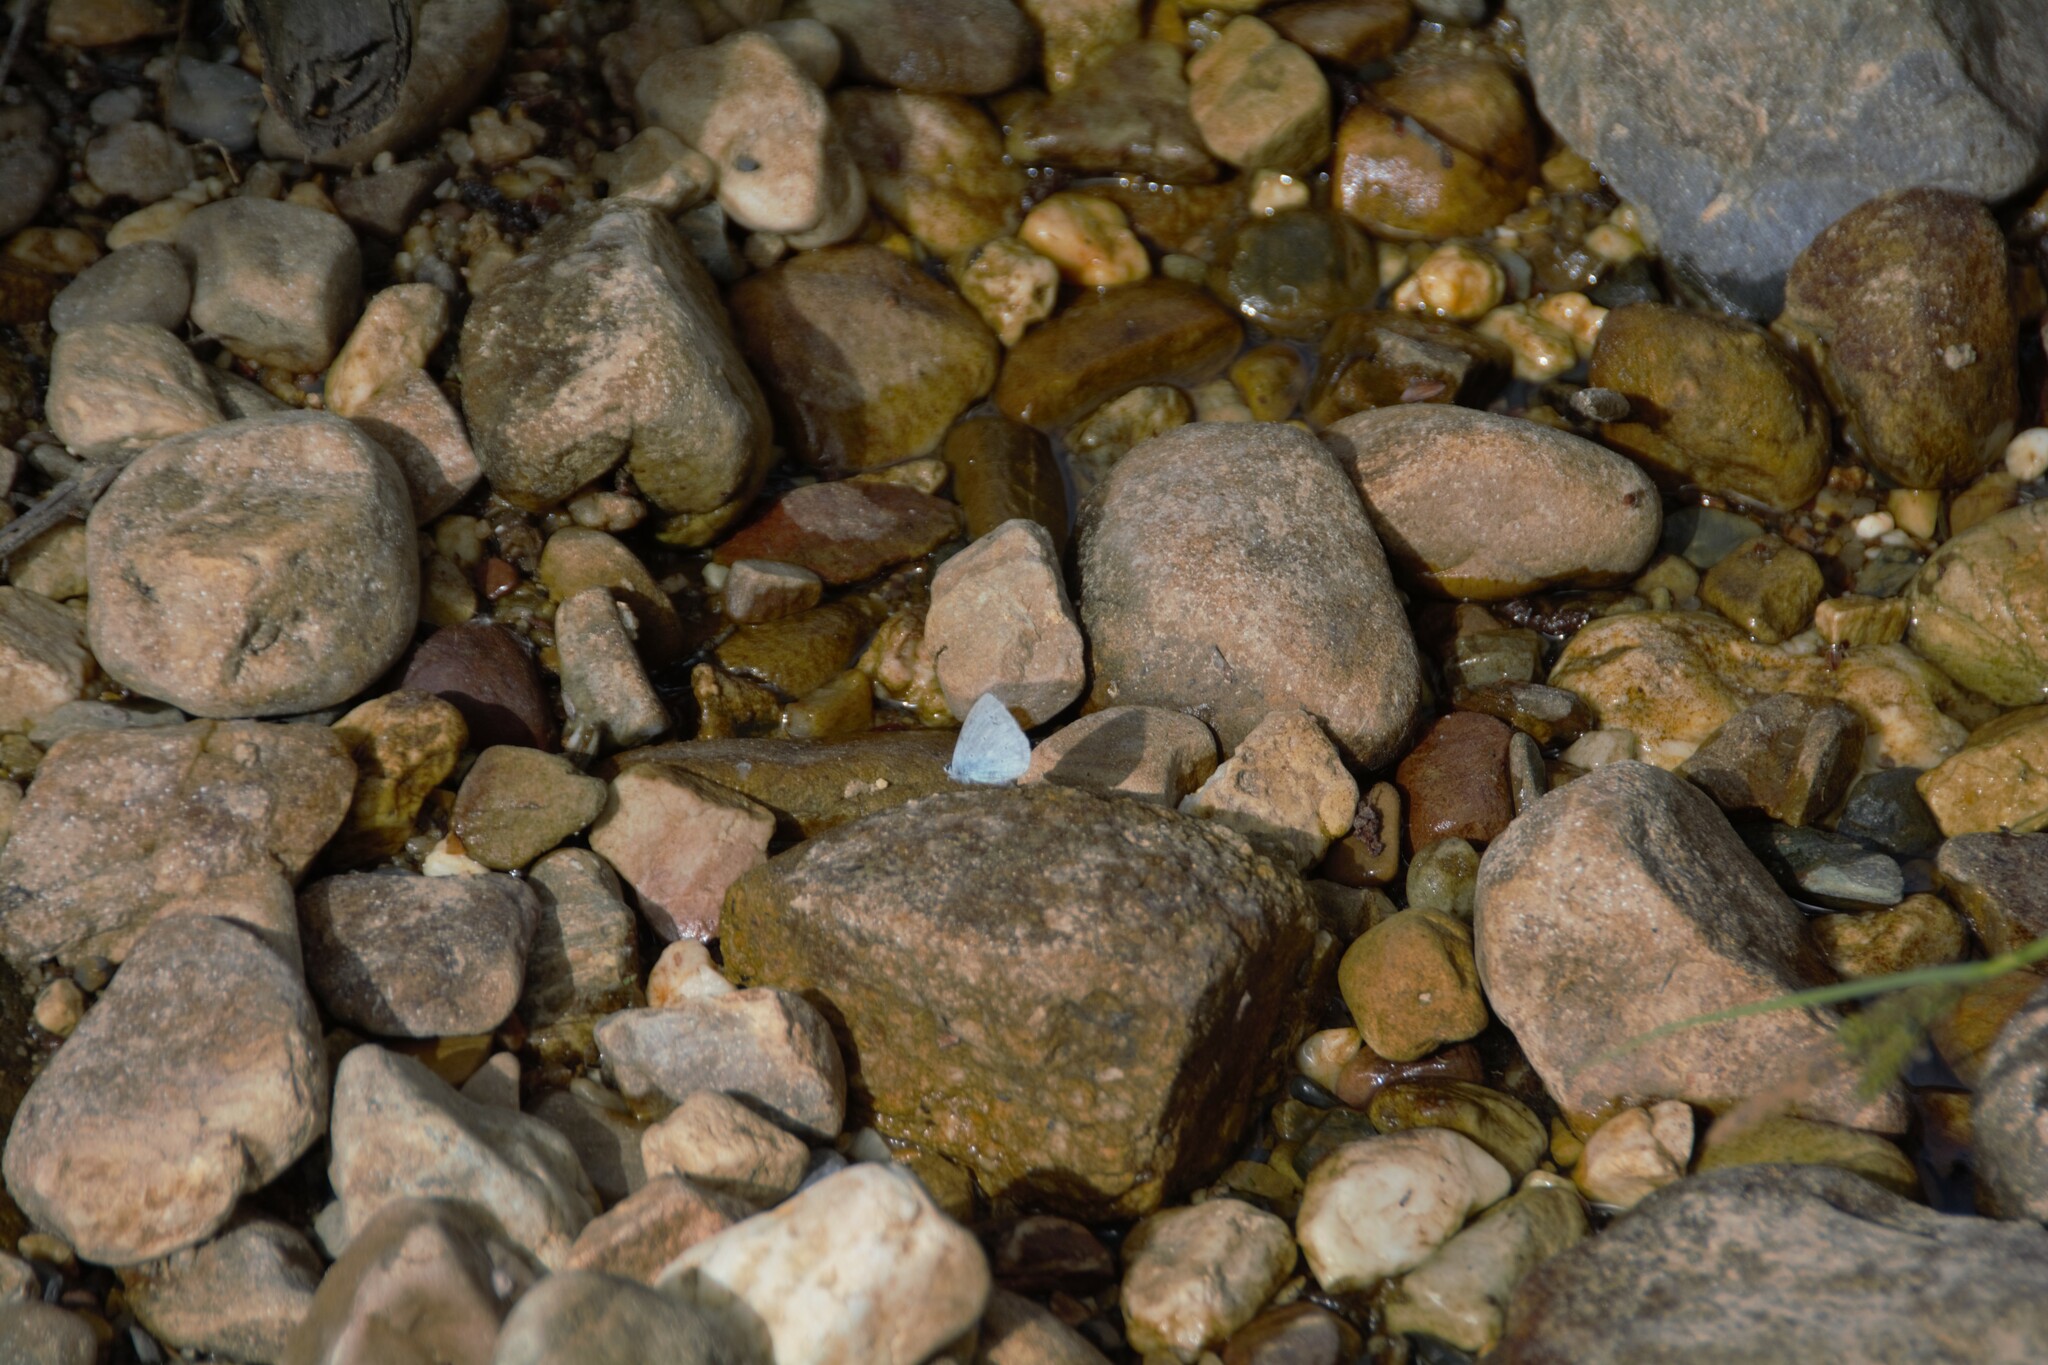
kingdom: Animalia
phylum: Arthropoda
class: Insecta
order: Lepidoptera
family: Lycaenidae
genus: Celastrina
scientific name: Celastrina argiolus
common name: Holly blue
